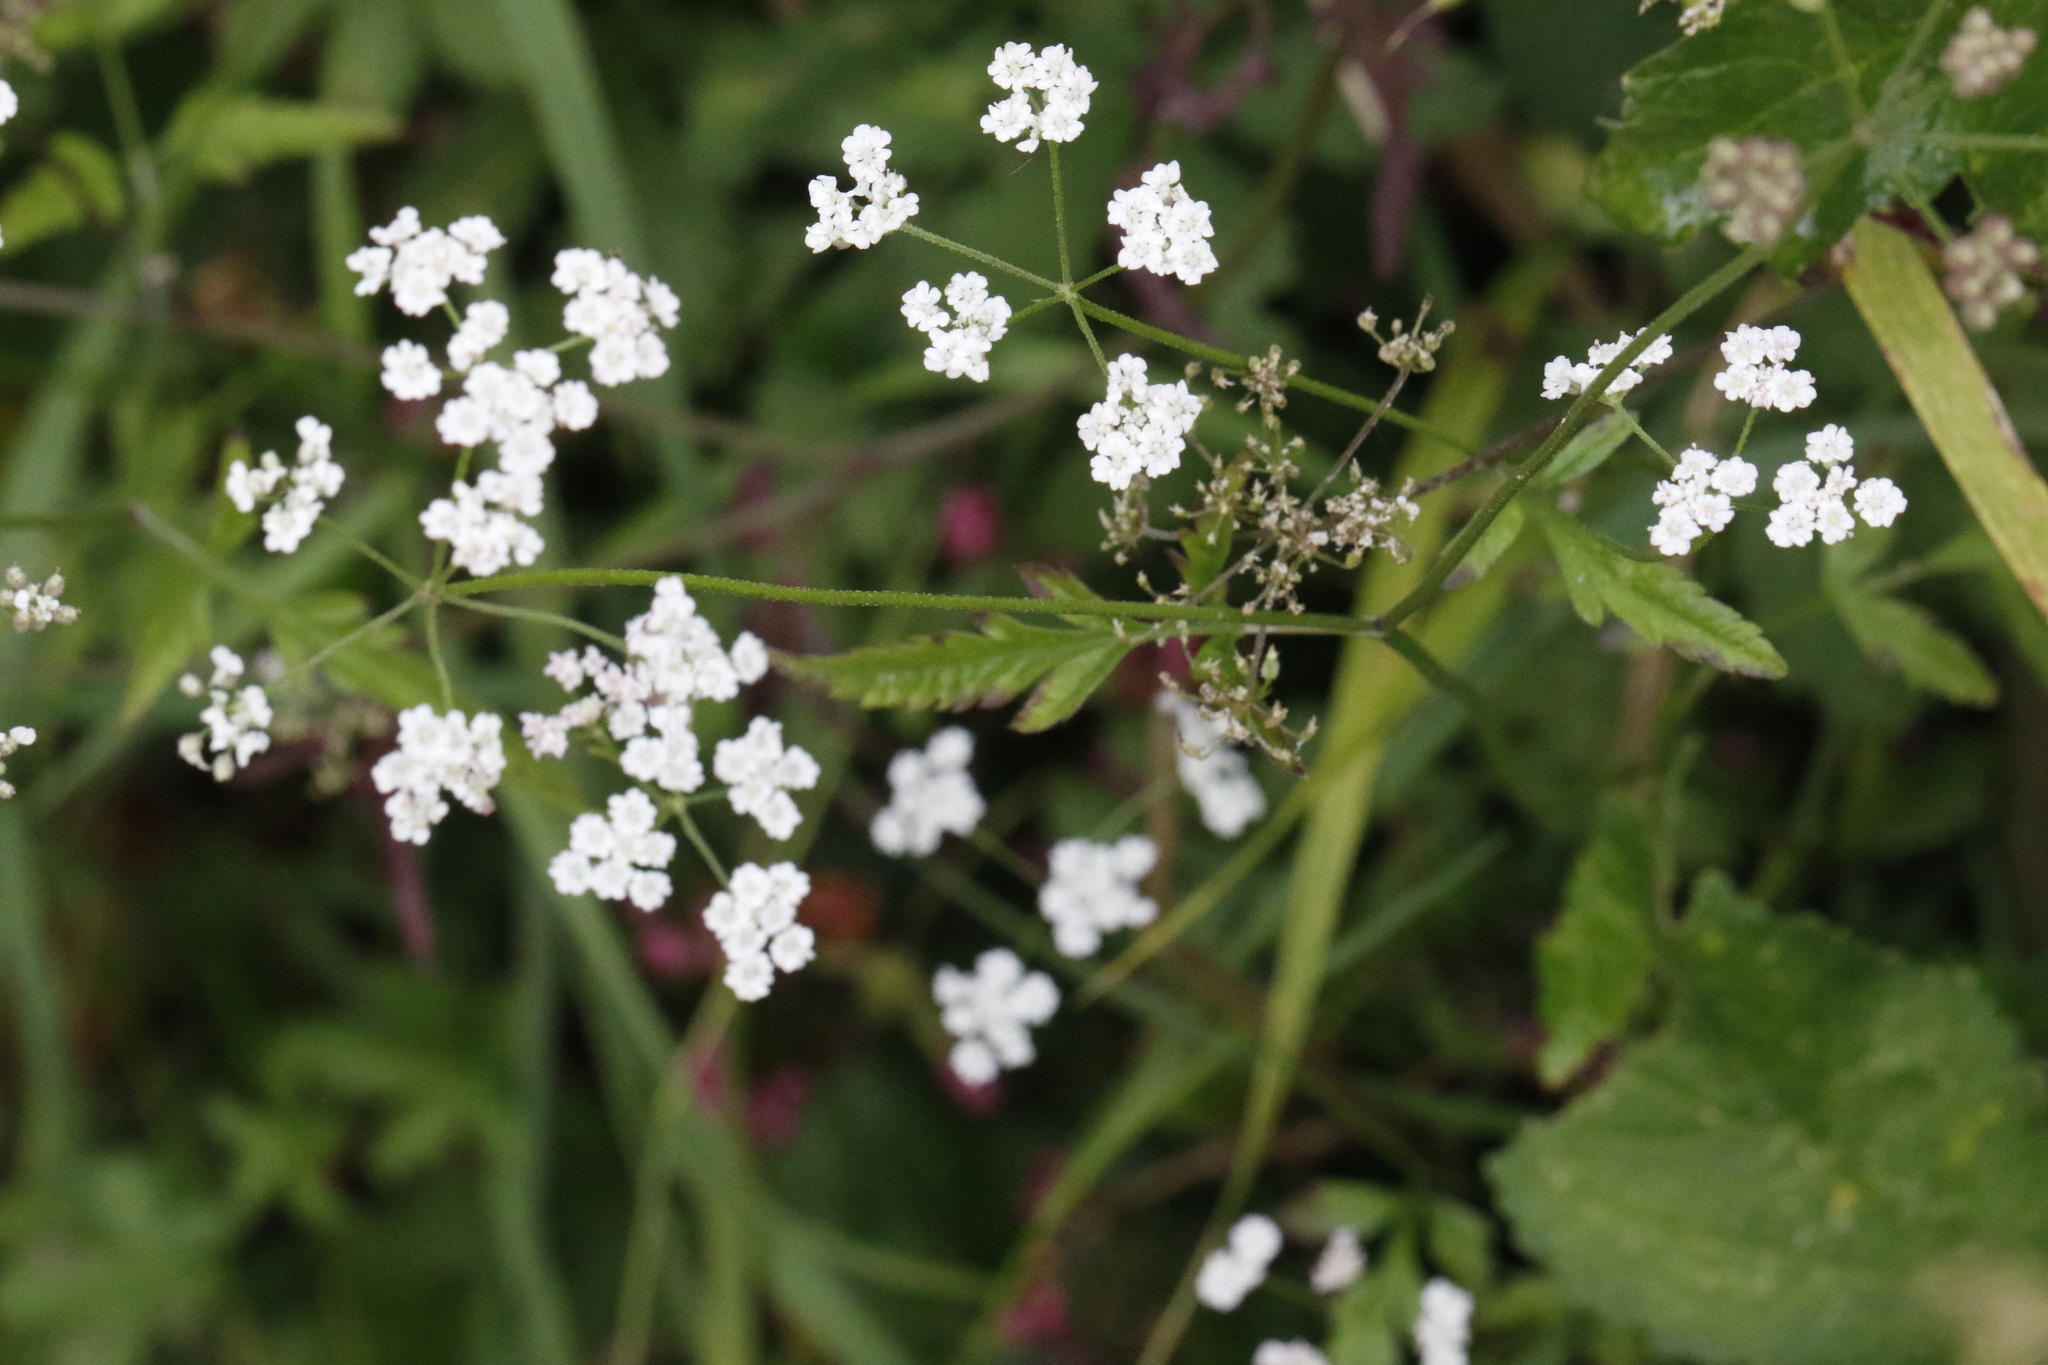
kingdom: Plantae
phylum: Tracheophyta
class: Magnoliopsida
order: Apiales
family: Apiaceae
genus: Torilis
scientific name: Torilis japonica
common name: Upright hedge-parsley
